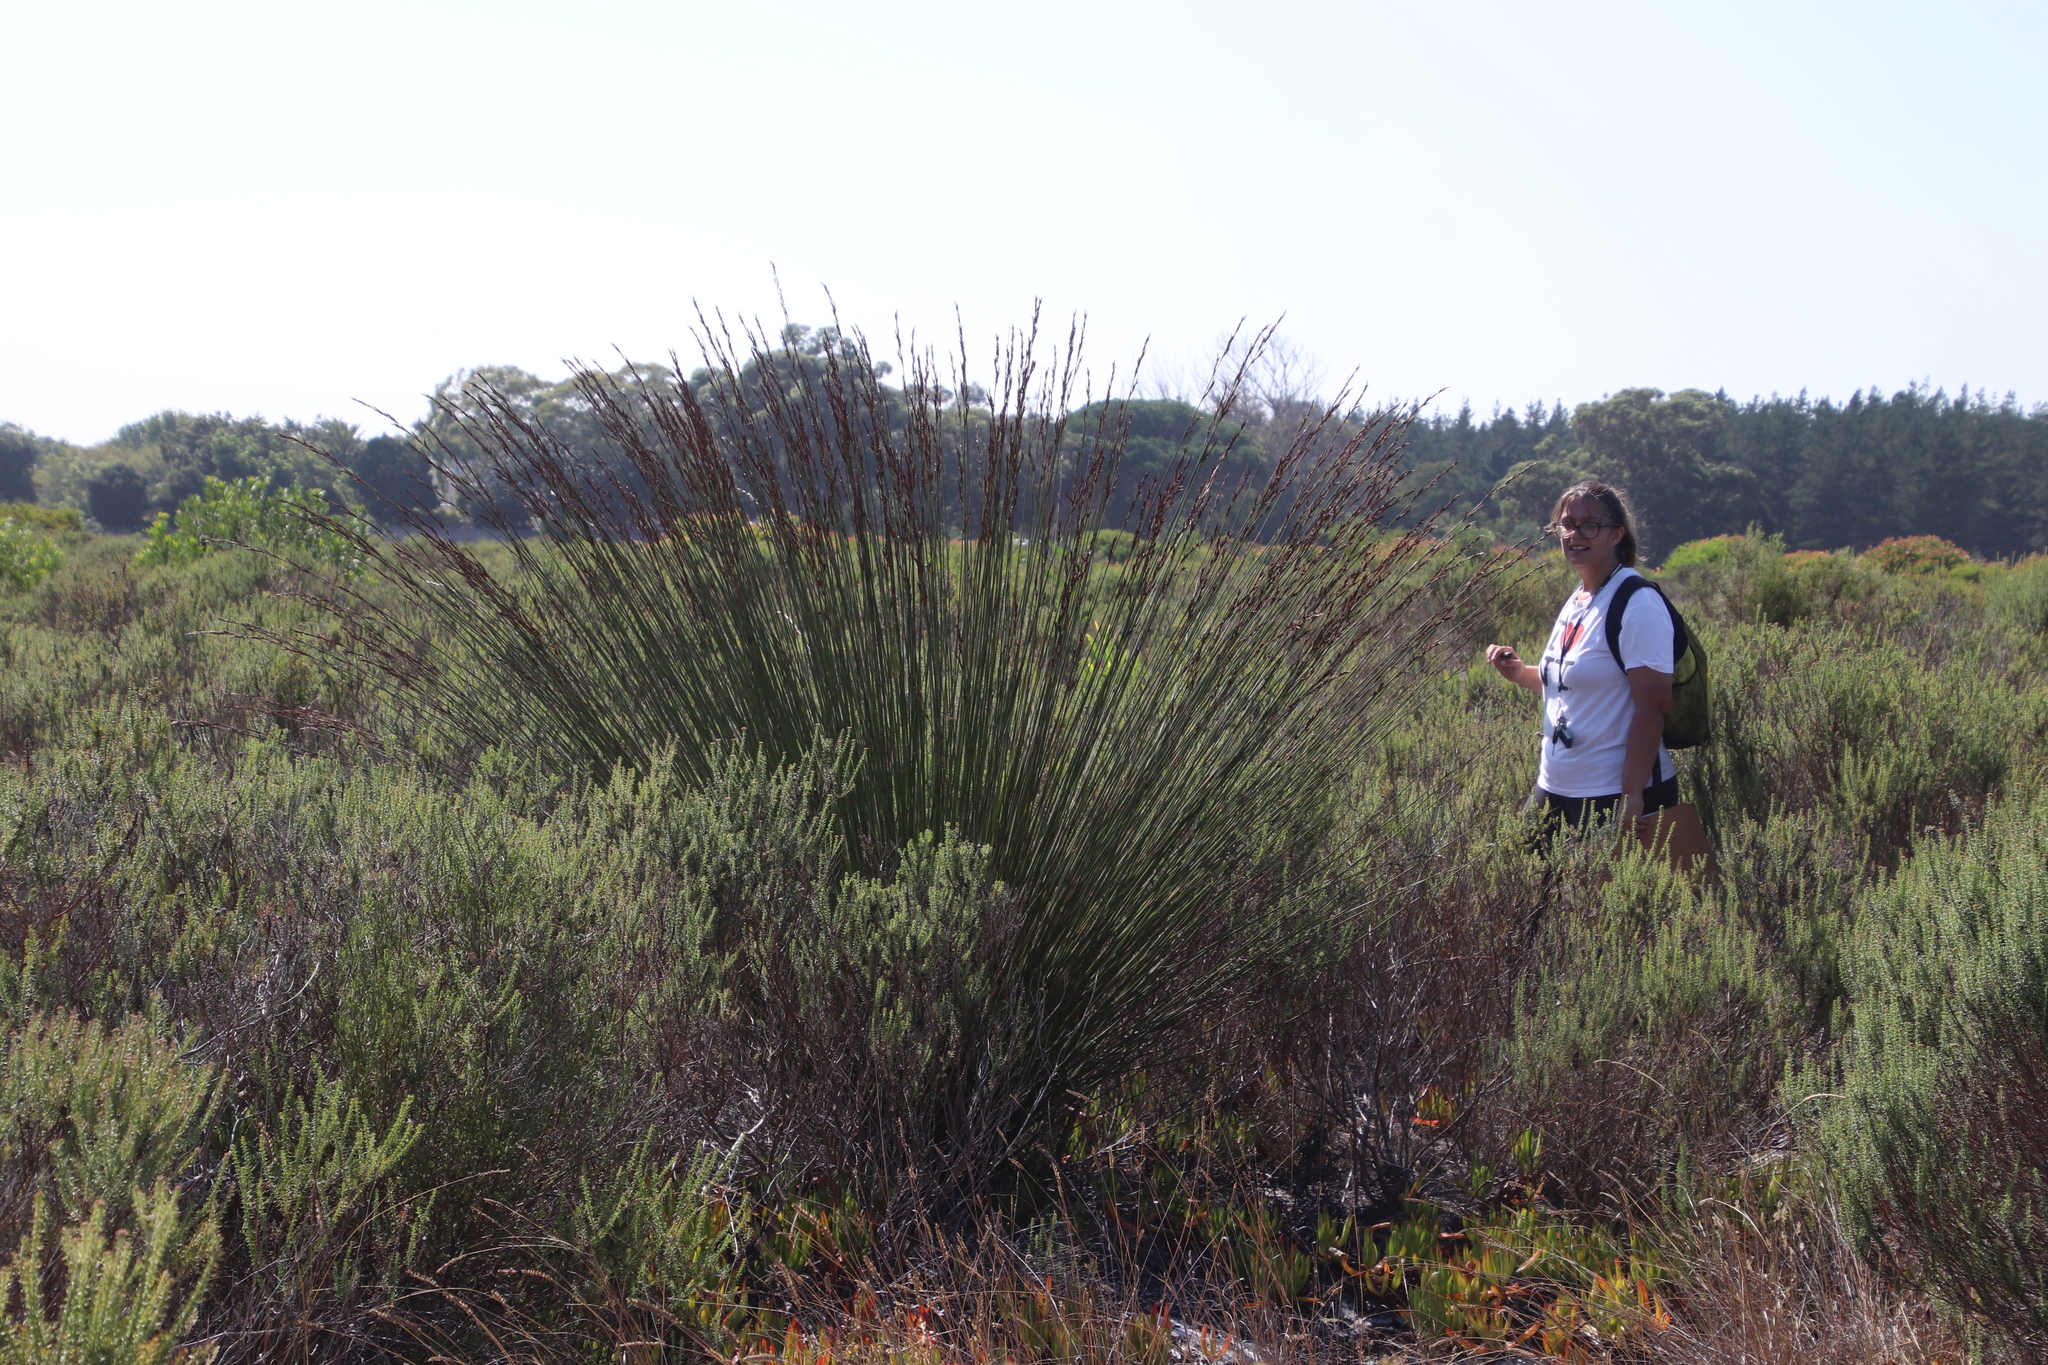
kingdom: Plantae
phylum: Tracheophyta
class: Liliopsida
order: Poales
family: Restionaceae
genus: Thamnochortus
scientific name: Thamnochortus insignis
